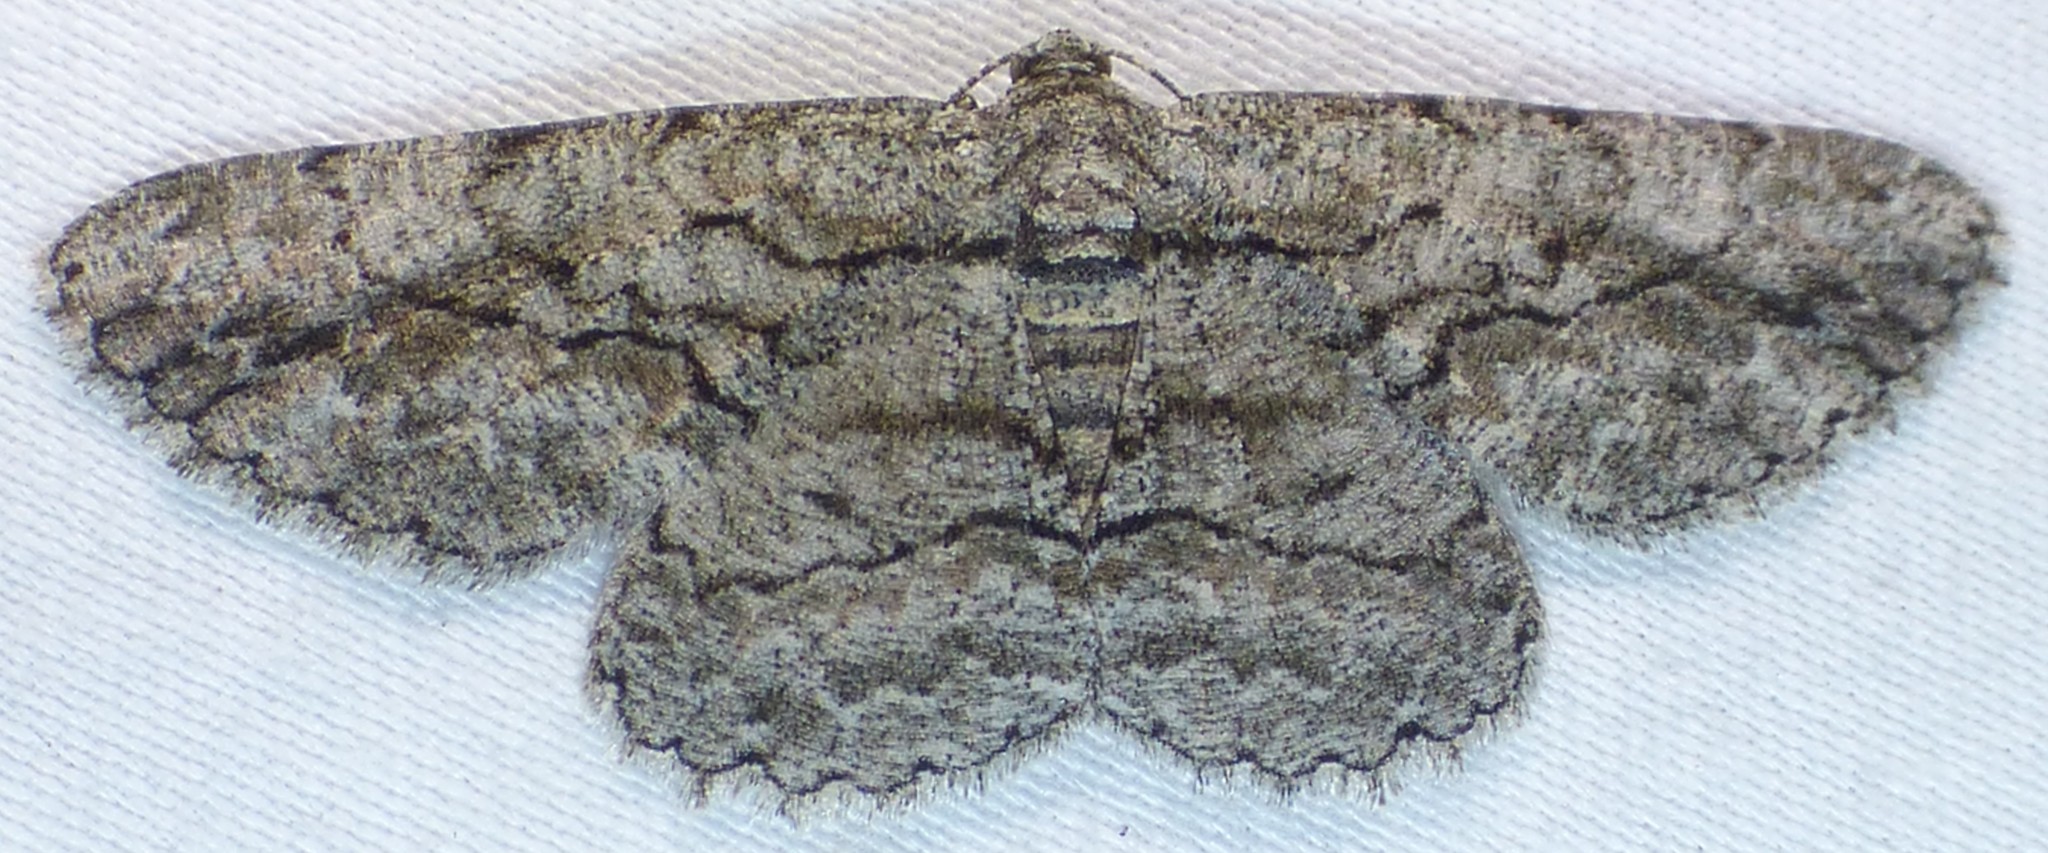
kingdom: Animalia
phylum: Arthropoda
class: Insecta
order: Lepidoptera
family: Geometridae
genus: Anavitrinella
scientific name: Anavitrinella pampinaria
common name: Common gray
